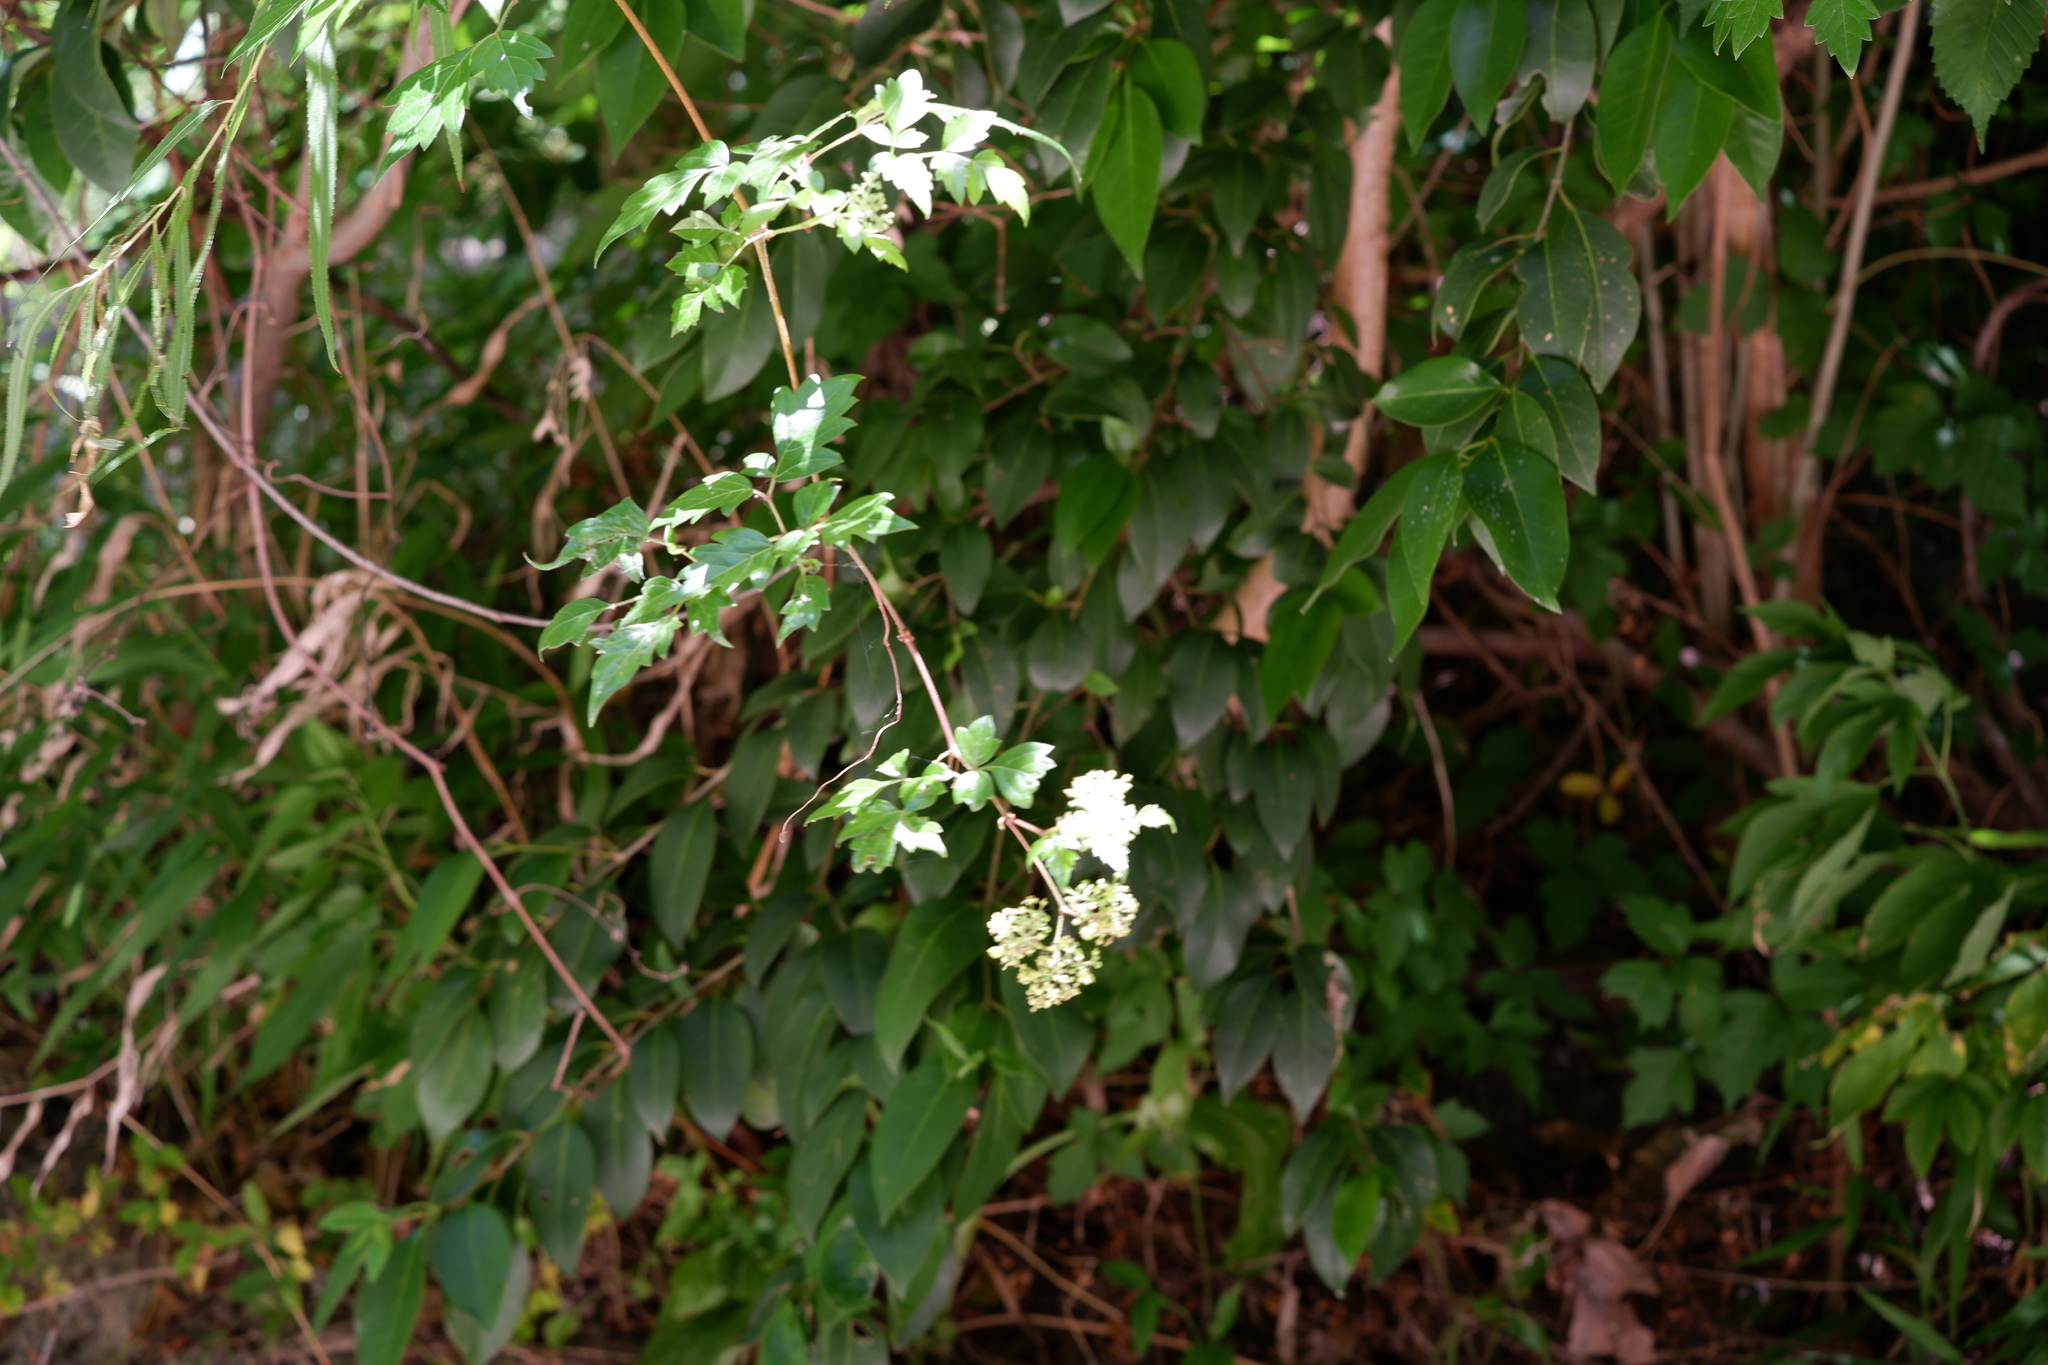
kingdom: Plantae
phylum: Tracheophyta
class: Magnoliopsida
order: Vitales
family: Vitaceae
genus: Nekemias
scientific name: Nekemias arborea
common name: Peppervine
